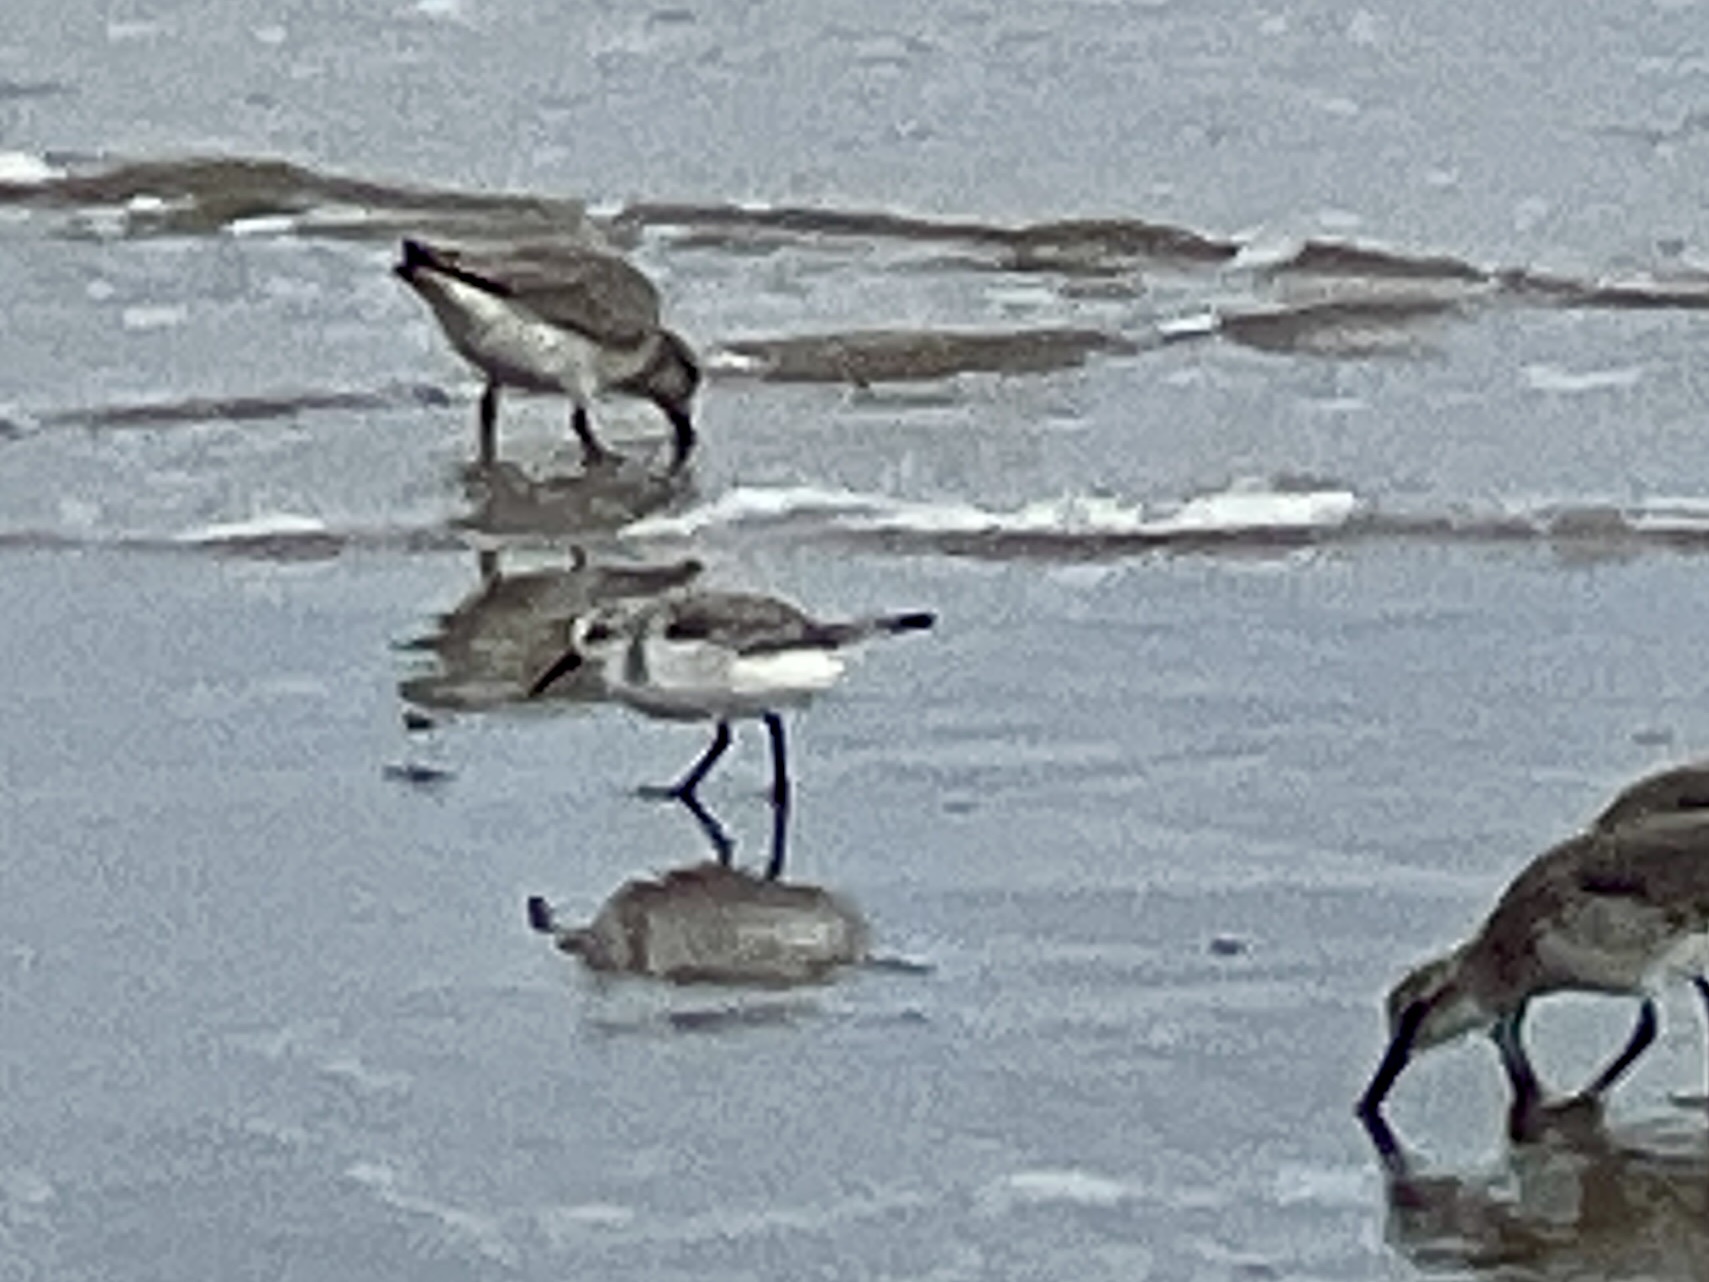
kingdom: Animalia
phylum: Chordata
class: Aves
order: Charadriiformes
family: Scolopacidae
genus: Calidris
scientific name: Calidris alba
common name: Sanderling
